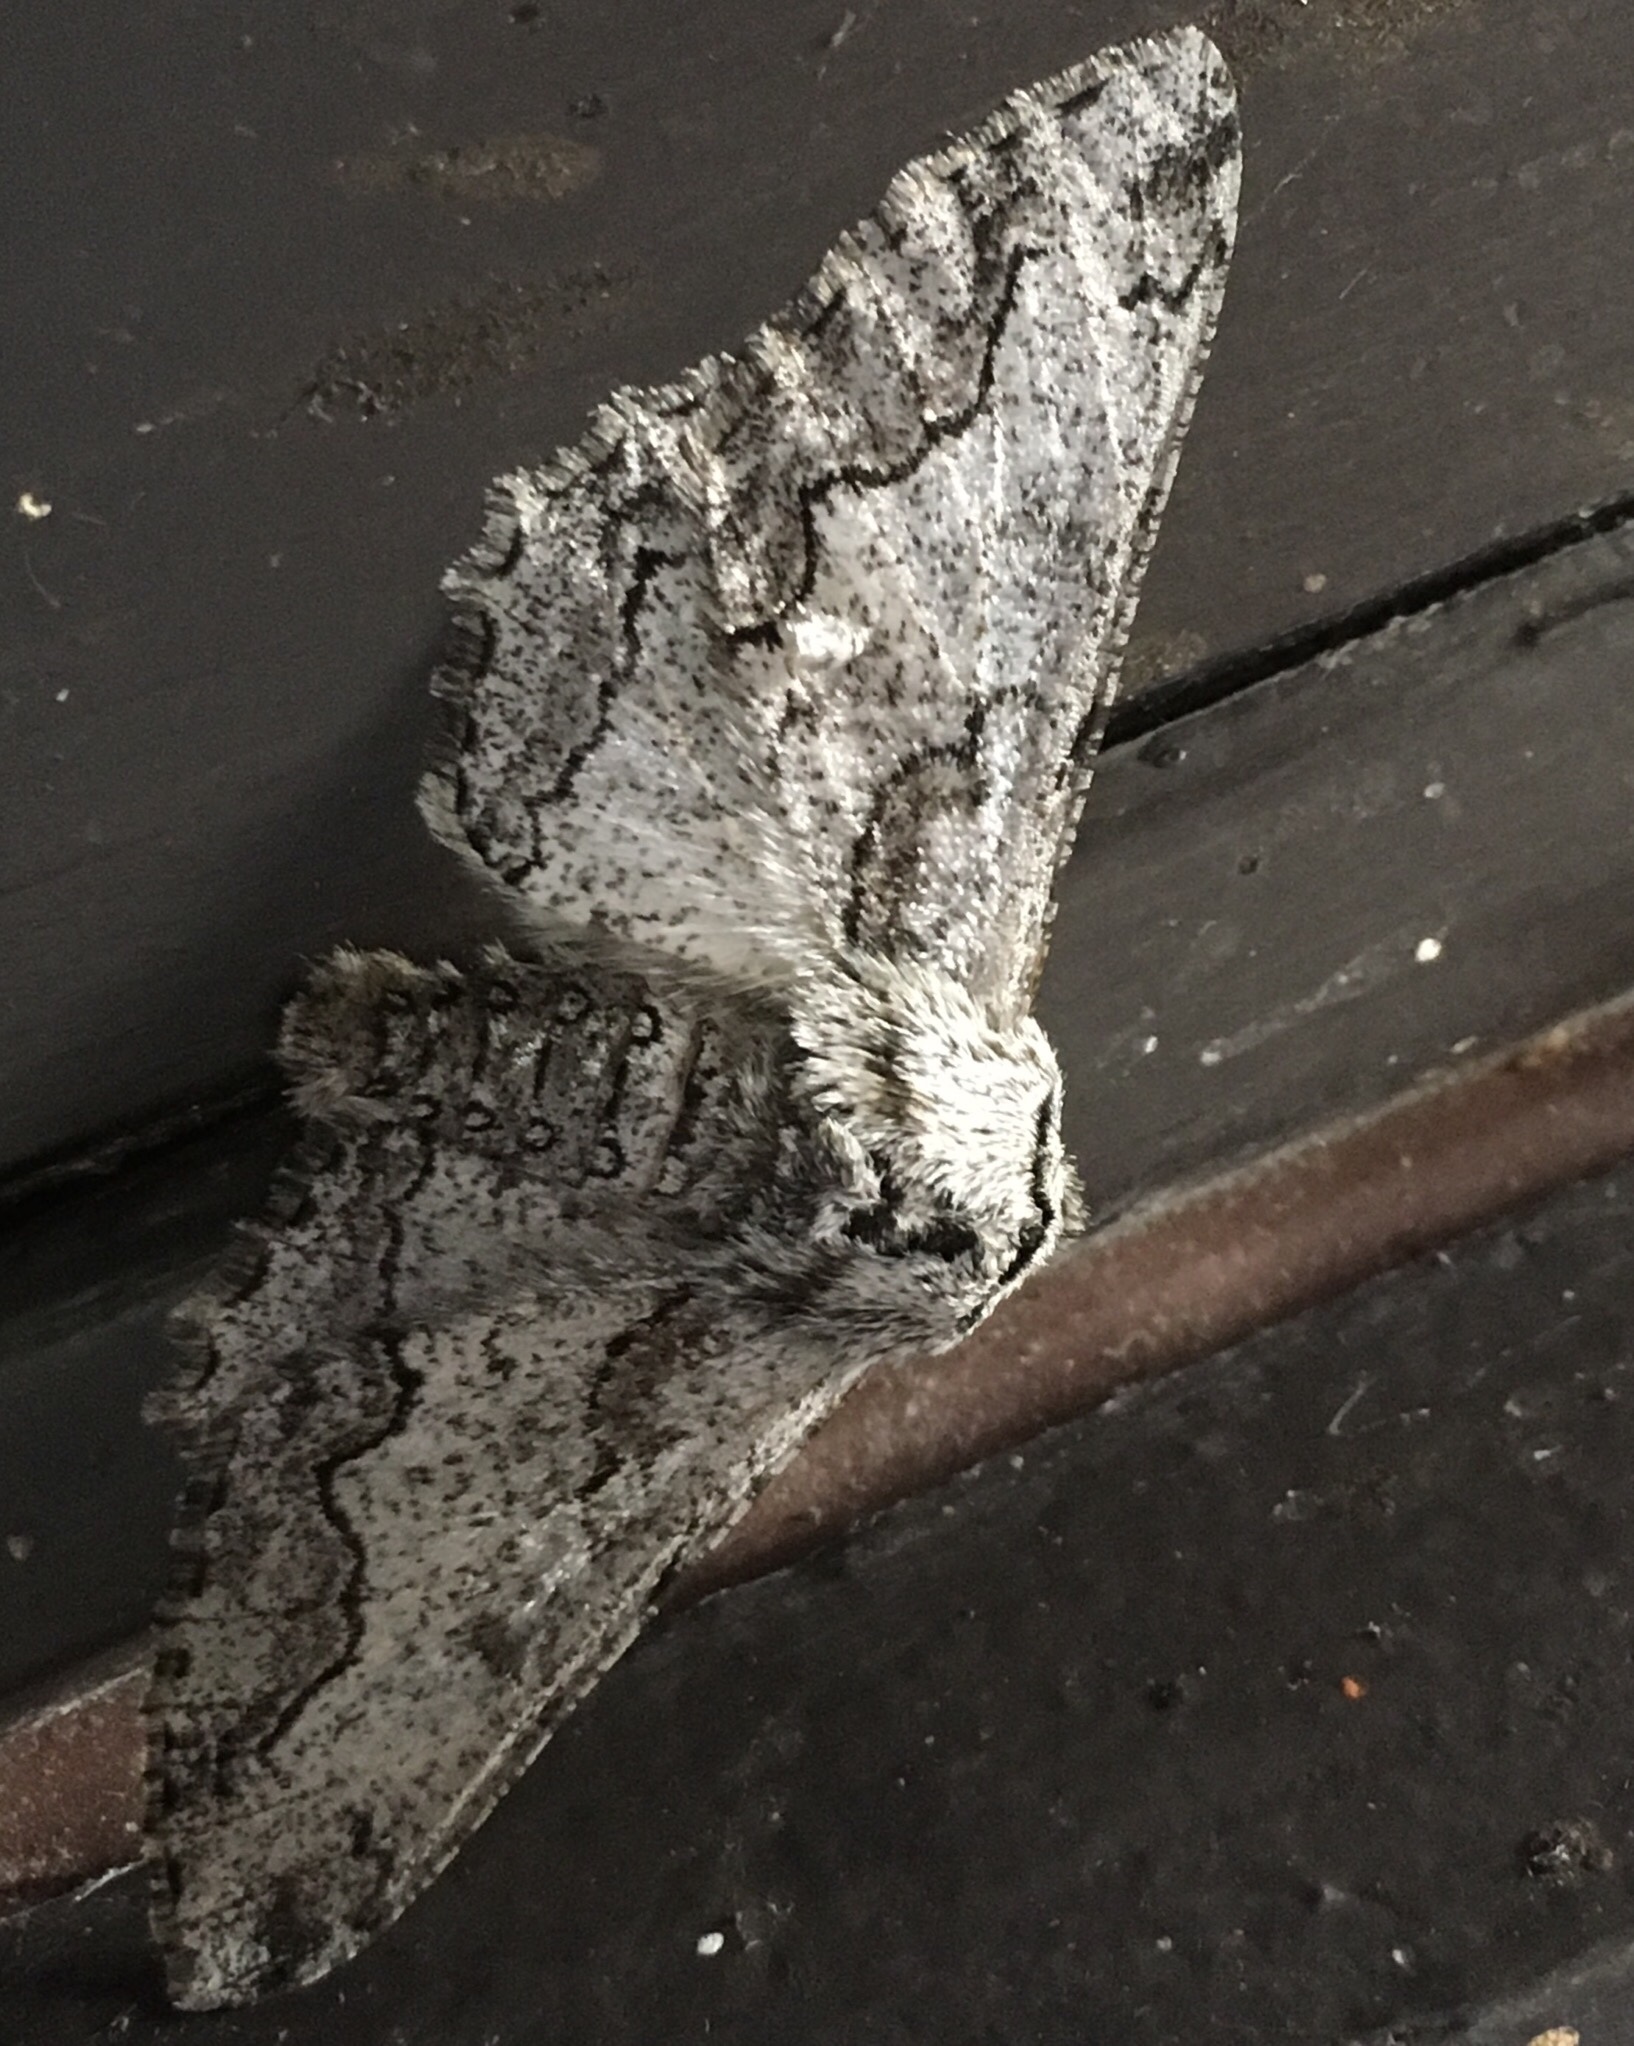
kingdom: Animalia
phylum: Arthropoda
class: Insecta
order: Lepidoptera
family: Geometridae
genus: Biston
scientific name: Biston sinuata
